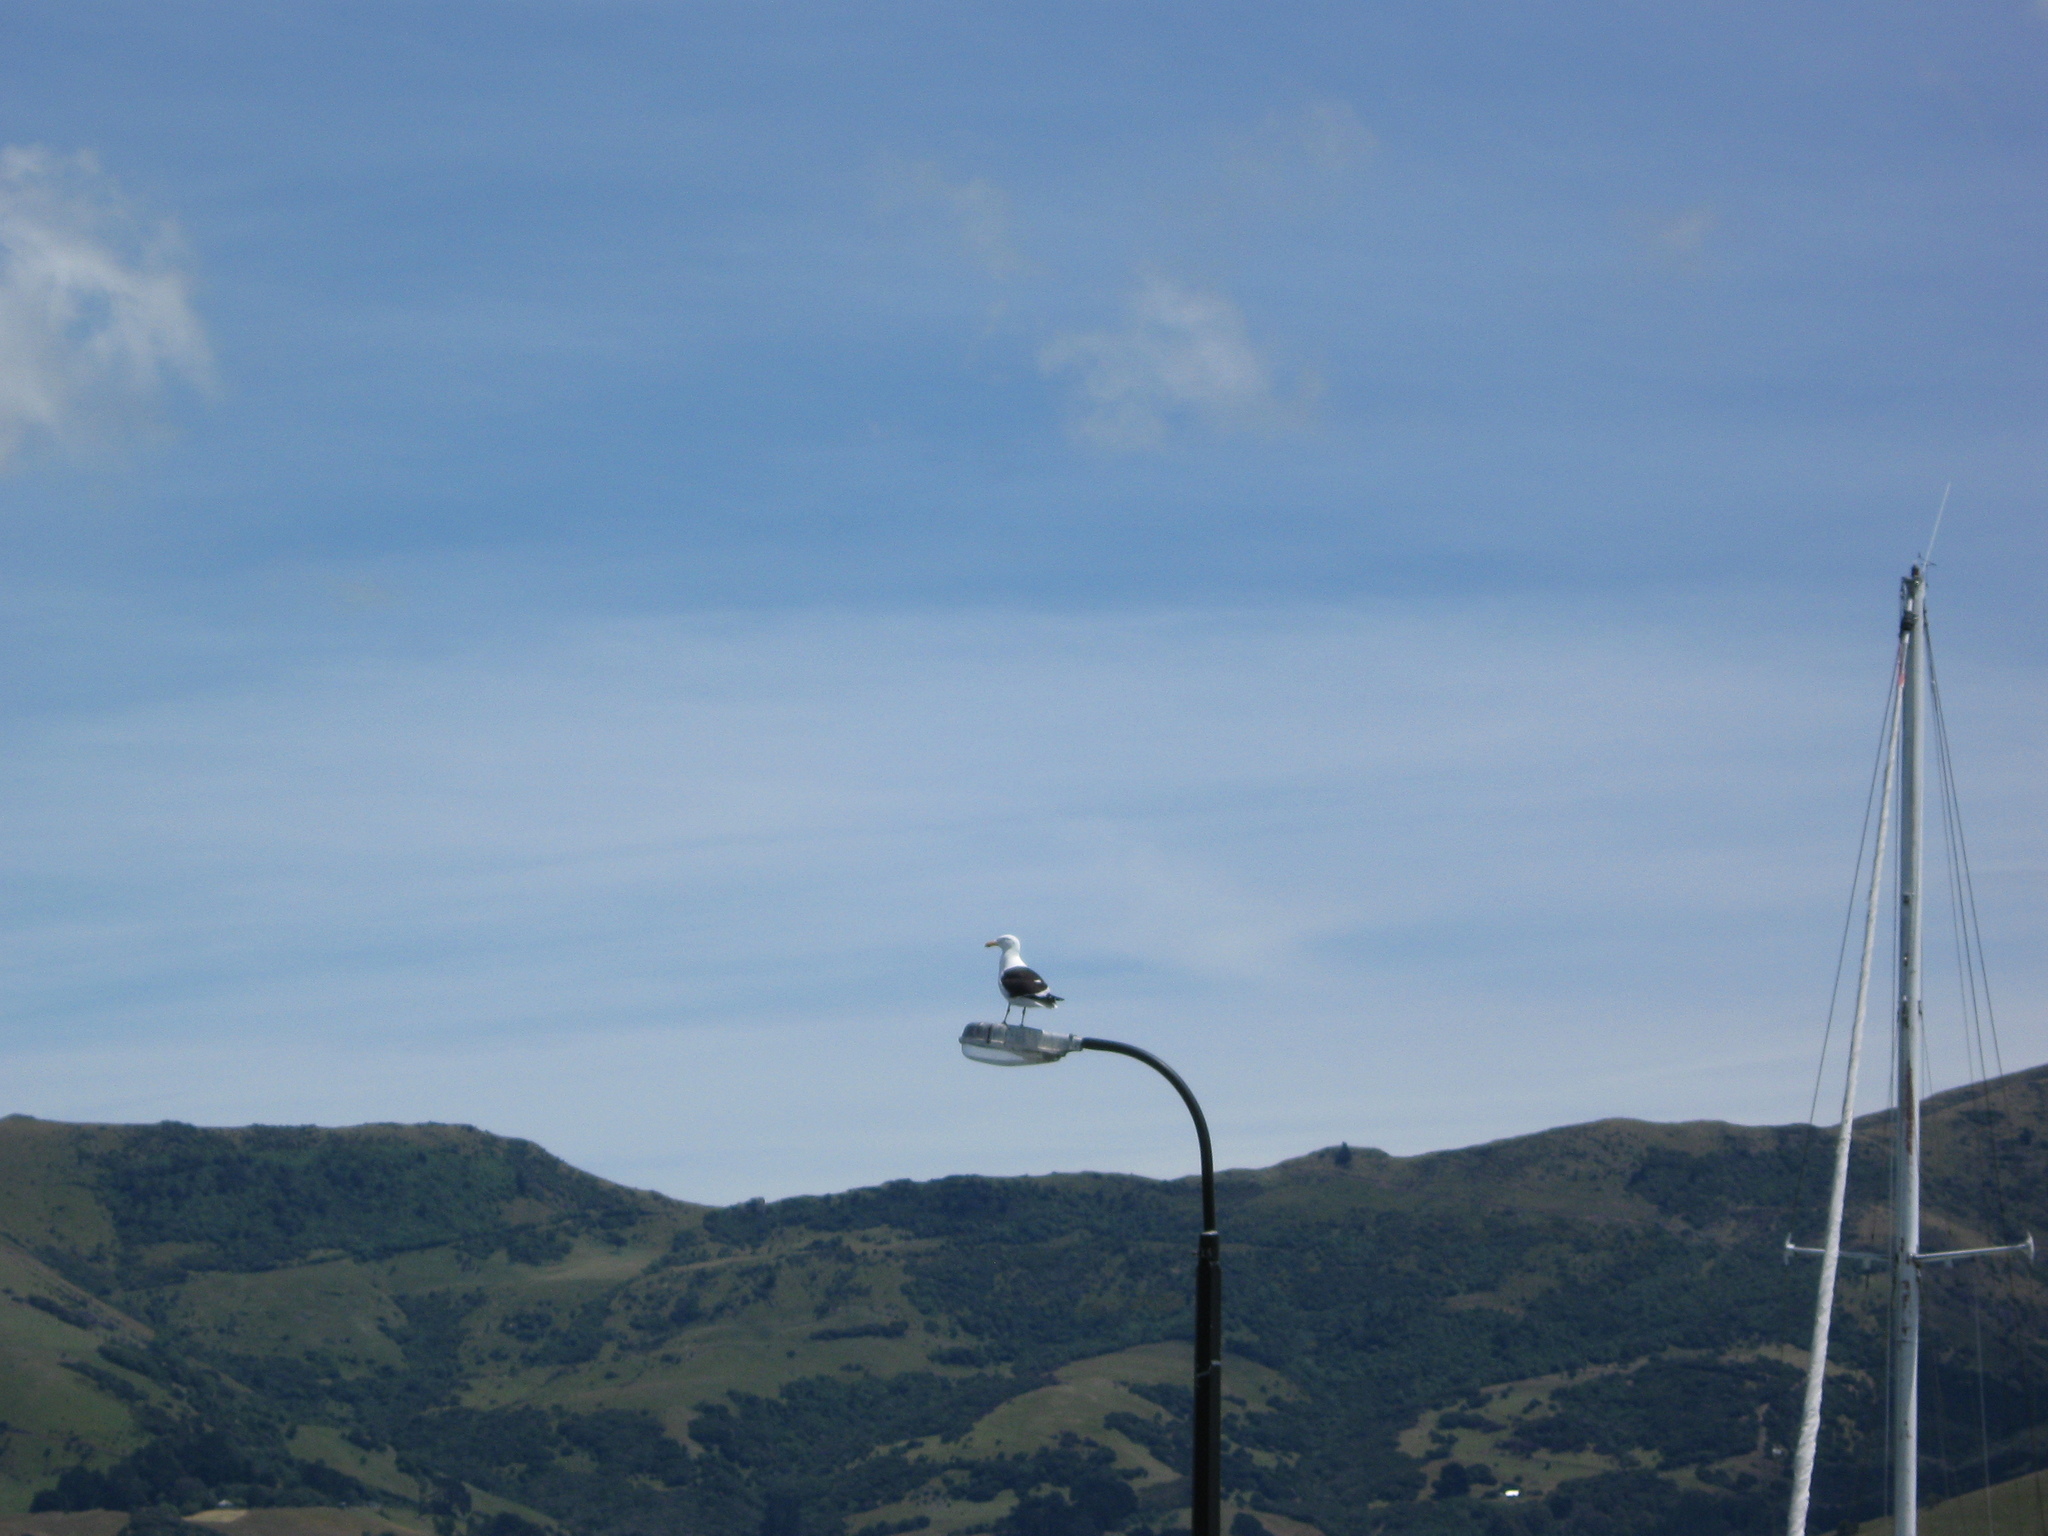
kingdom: Animalia
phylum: Chordata
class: Aves
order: Charadriiformes
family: Laridae
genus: Larus
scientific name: Larus dominicanus
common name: Kelp gull
